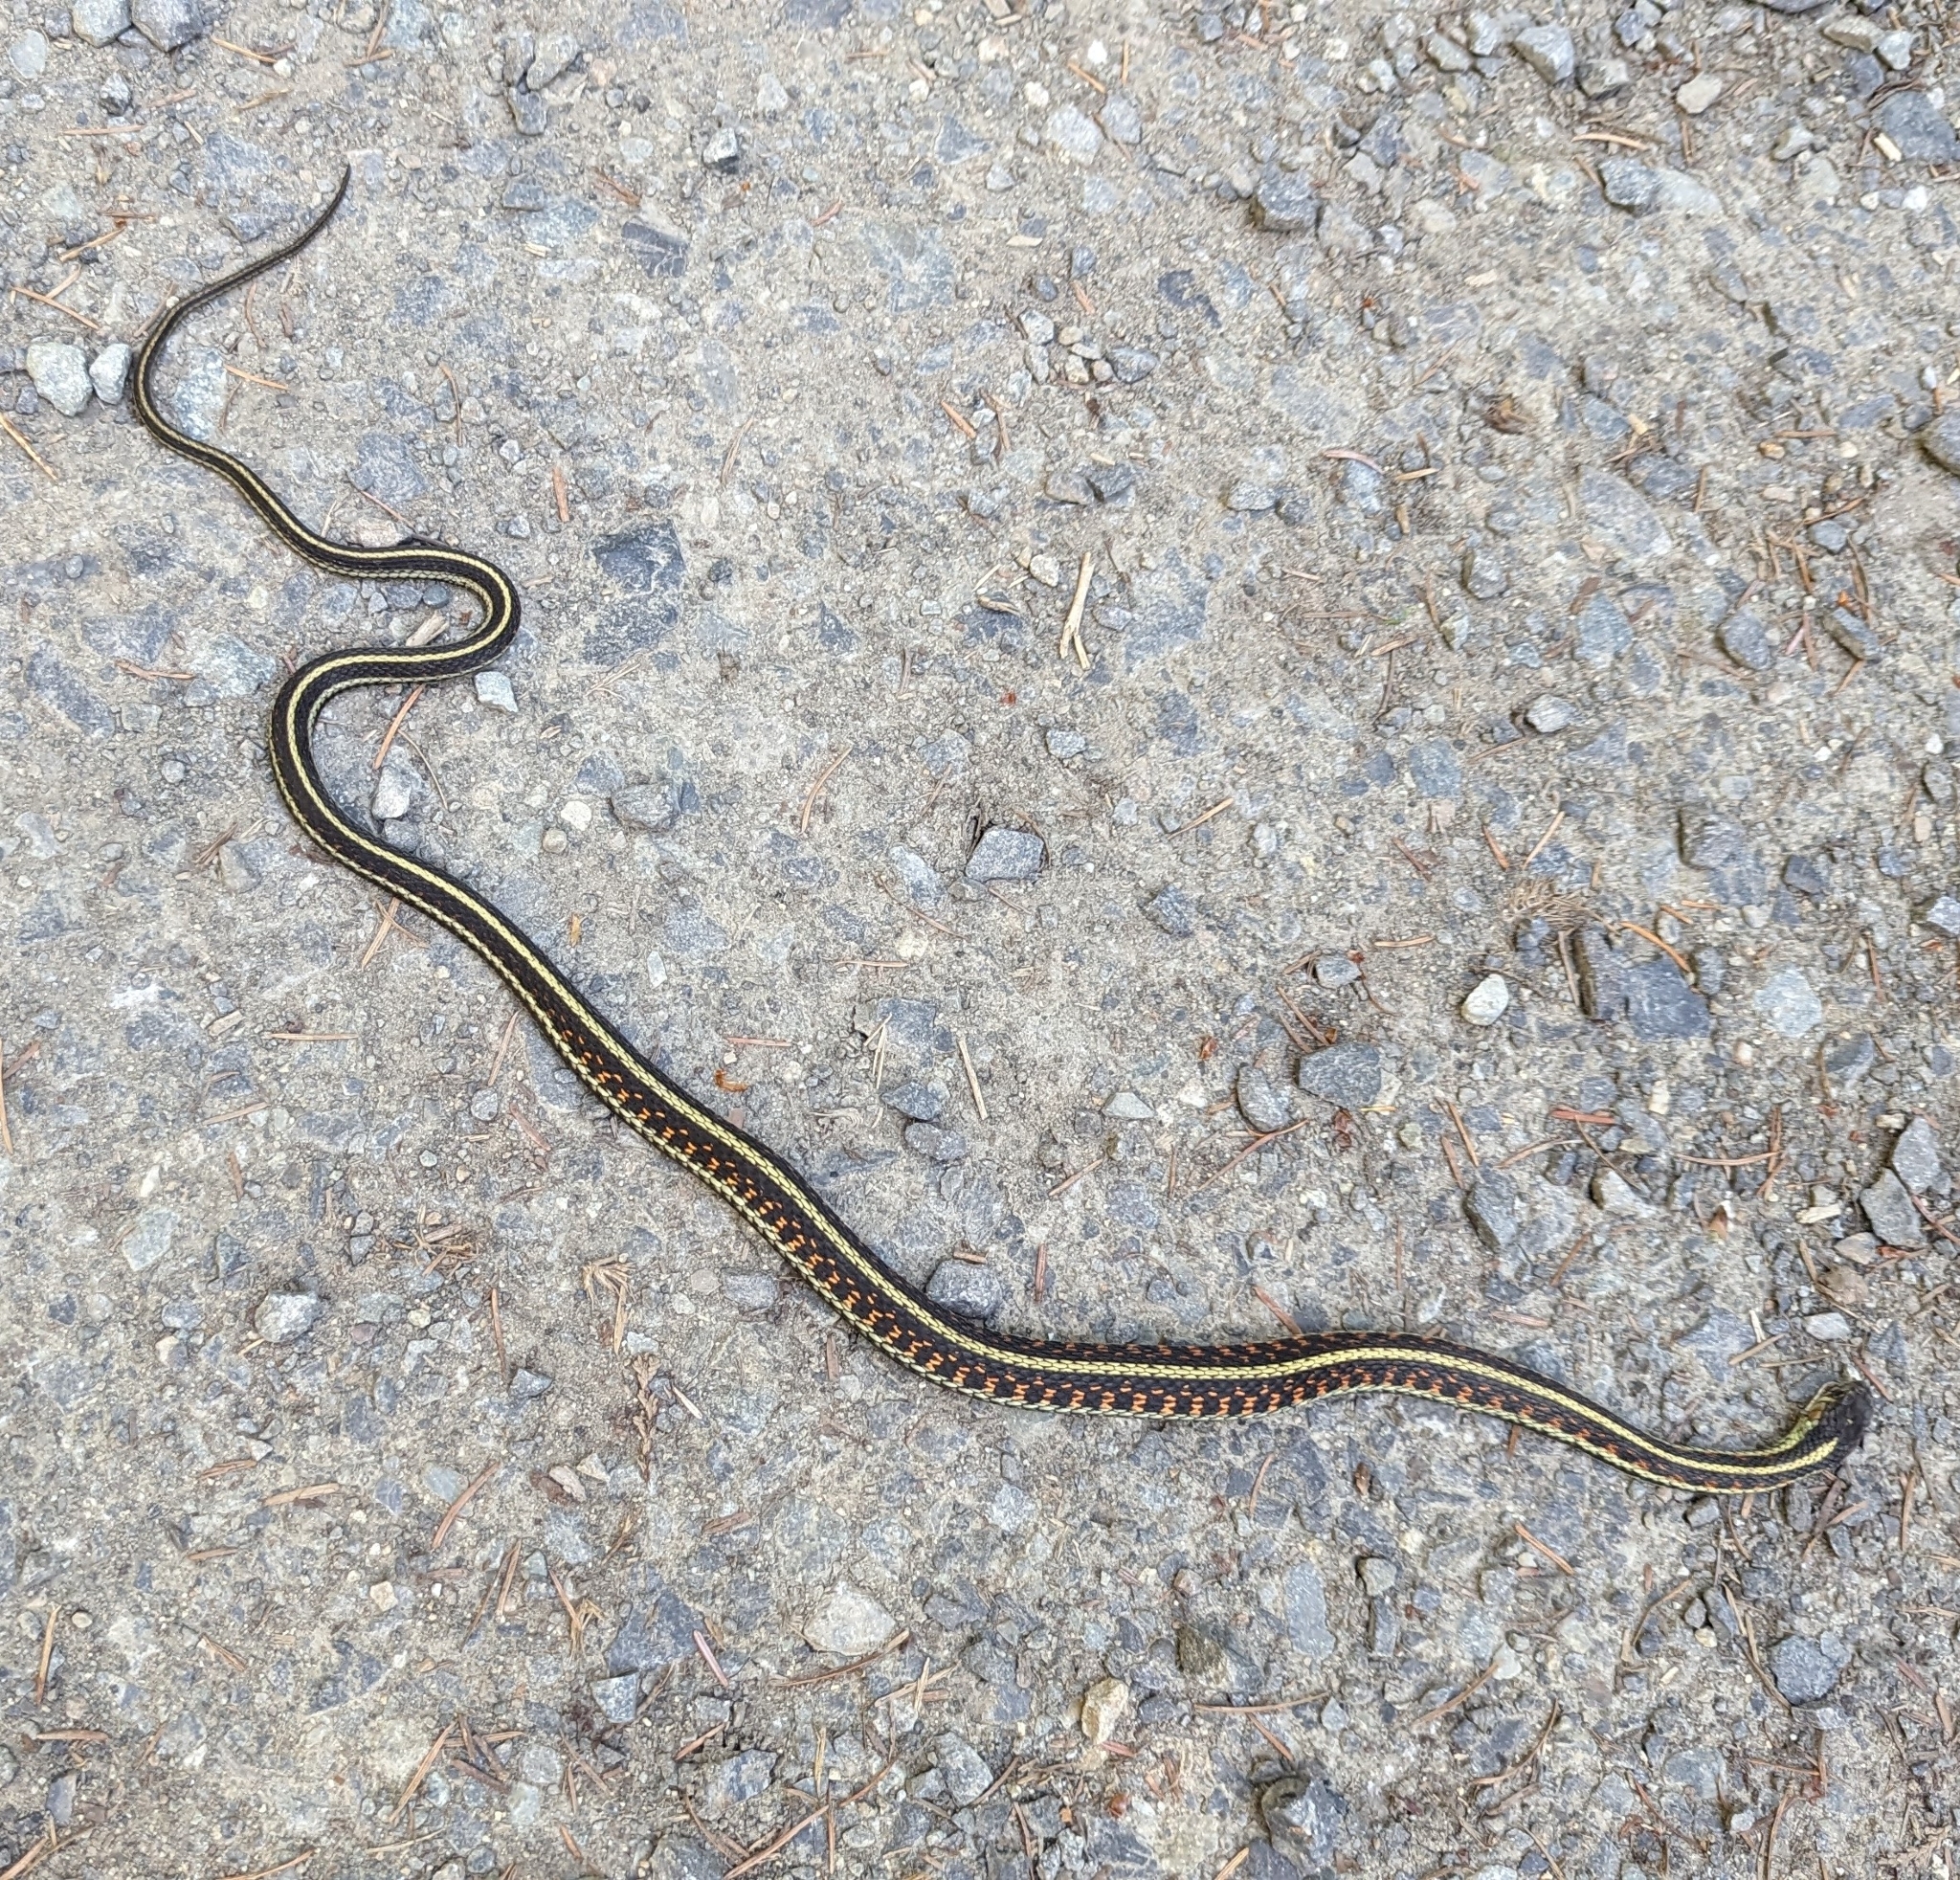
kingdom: Animalia
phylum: Chordata
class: Squamata
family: Colubridae
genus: Thamnophis
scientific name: Thamnophis sirtalis
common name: Common garter snake
